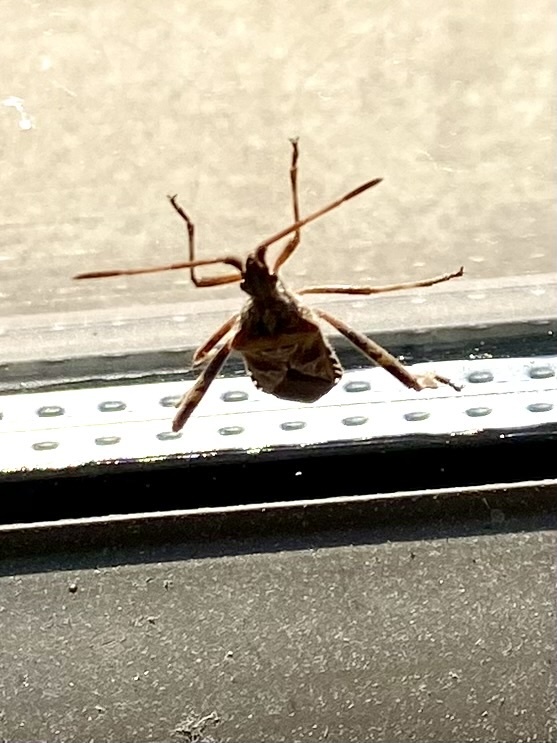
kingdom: Animalia
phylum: Arthropoda
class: Insecta
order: Hemiptera
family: Coreidae
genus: Leptoglossus
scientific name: Leptoglossus occidentalis
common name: Western conifer-seed bug
